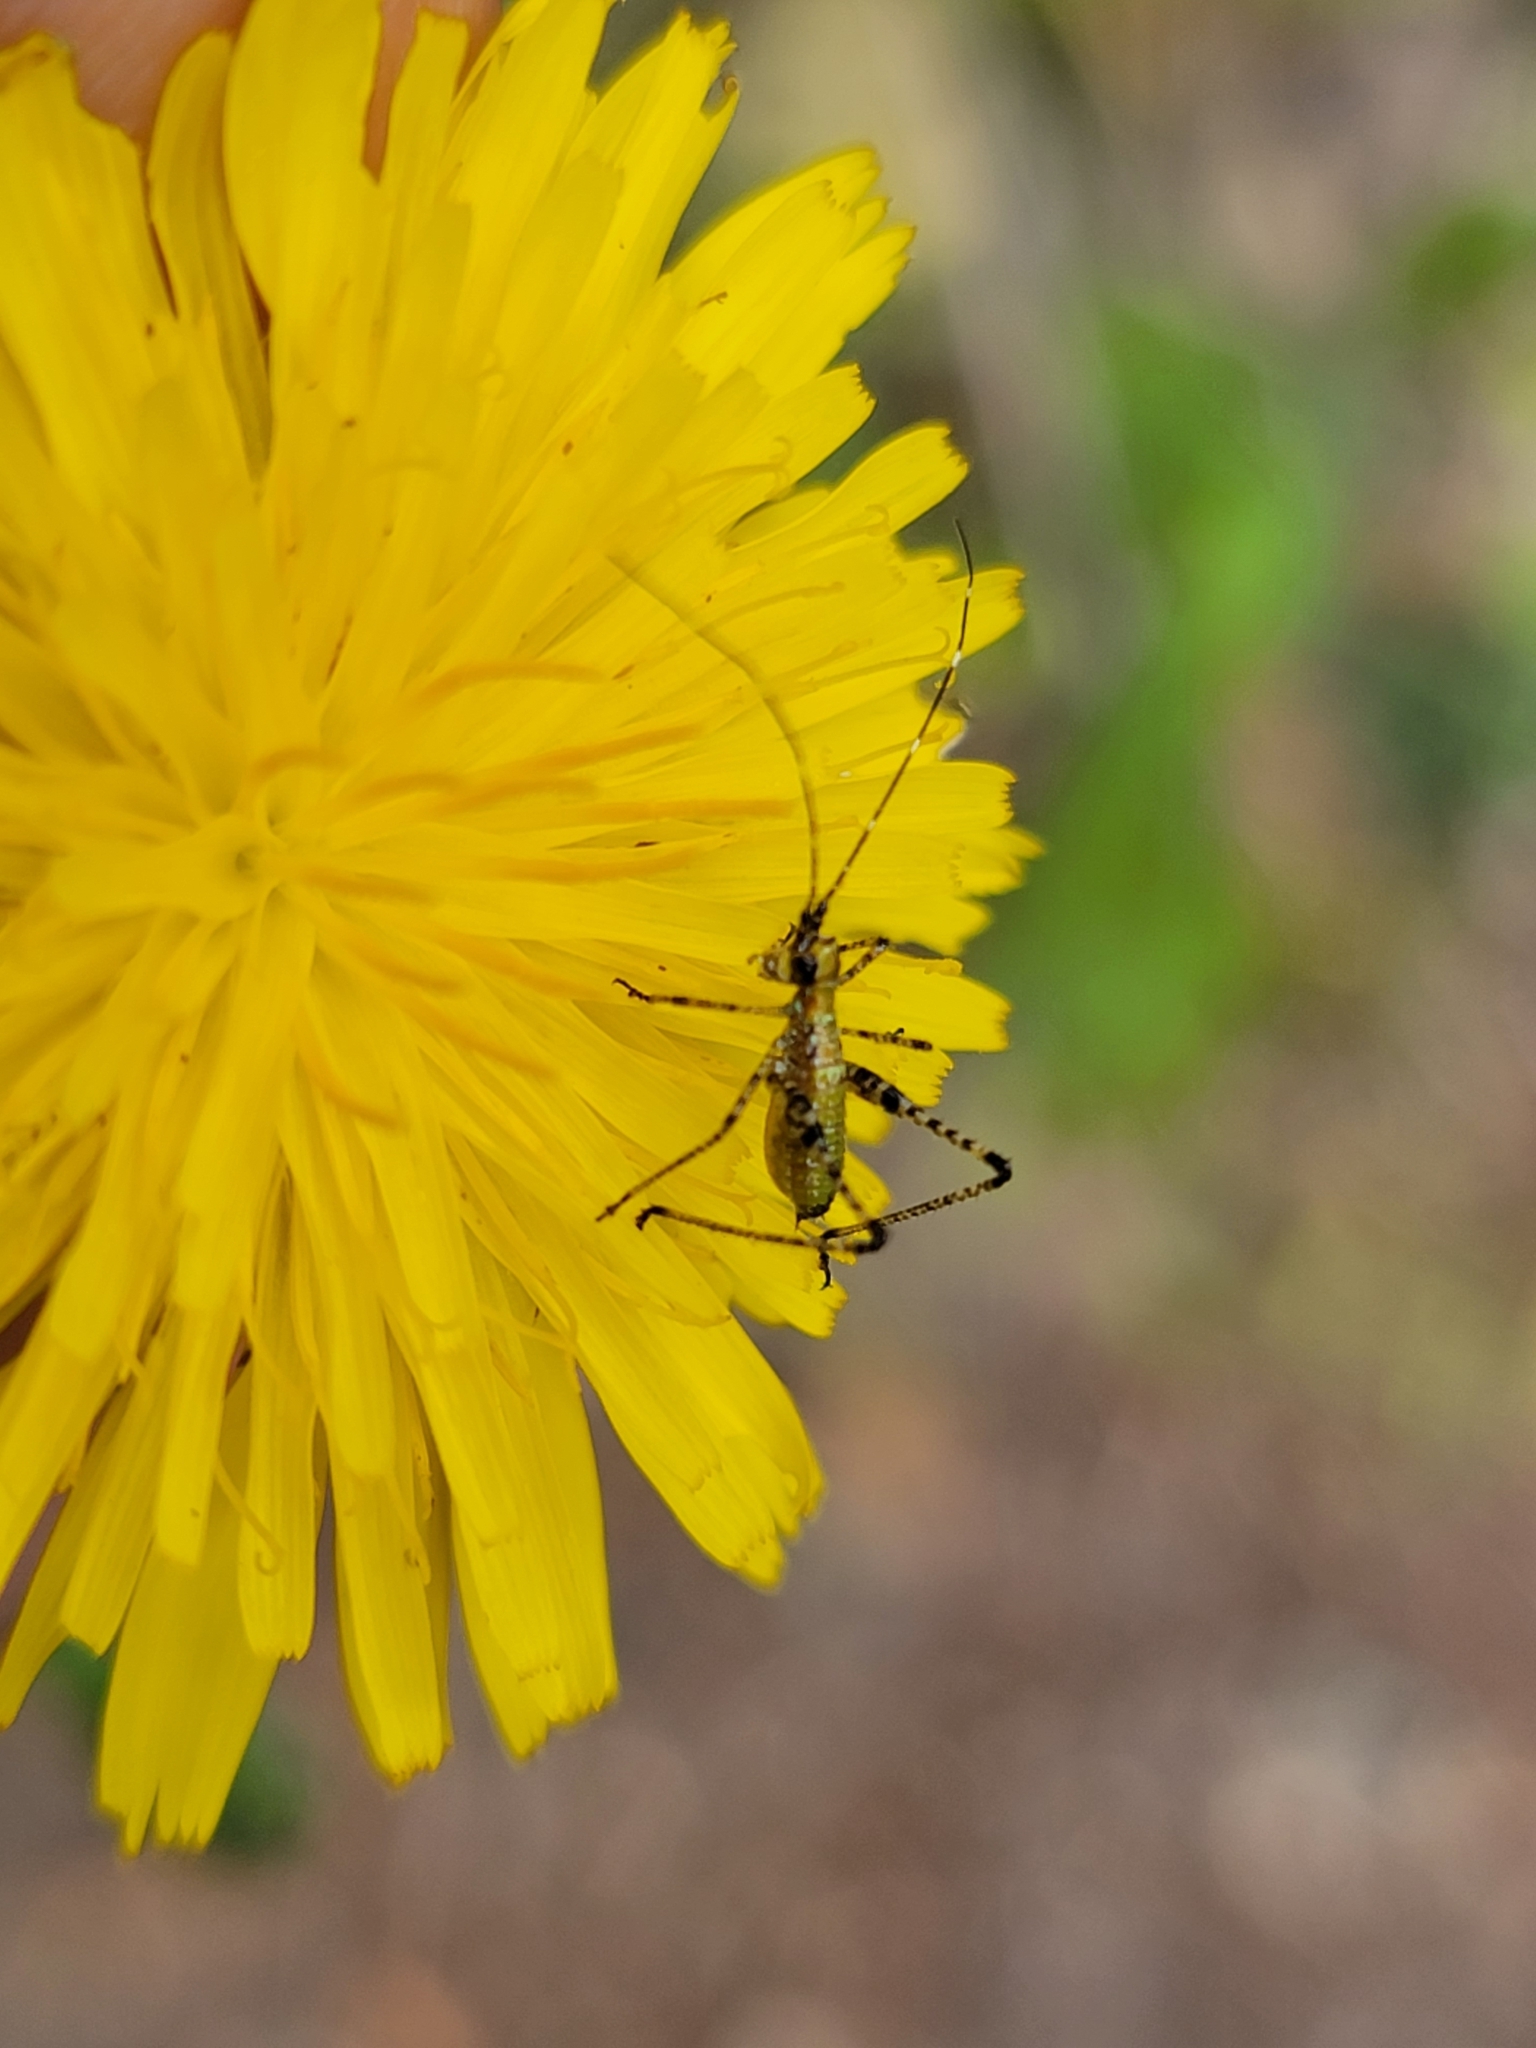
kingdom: Animalia
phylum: Arthropoda
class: Insecta
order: Orthoptera
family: Tettigoniidae
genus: Scudderia
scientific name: Scudderia
